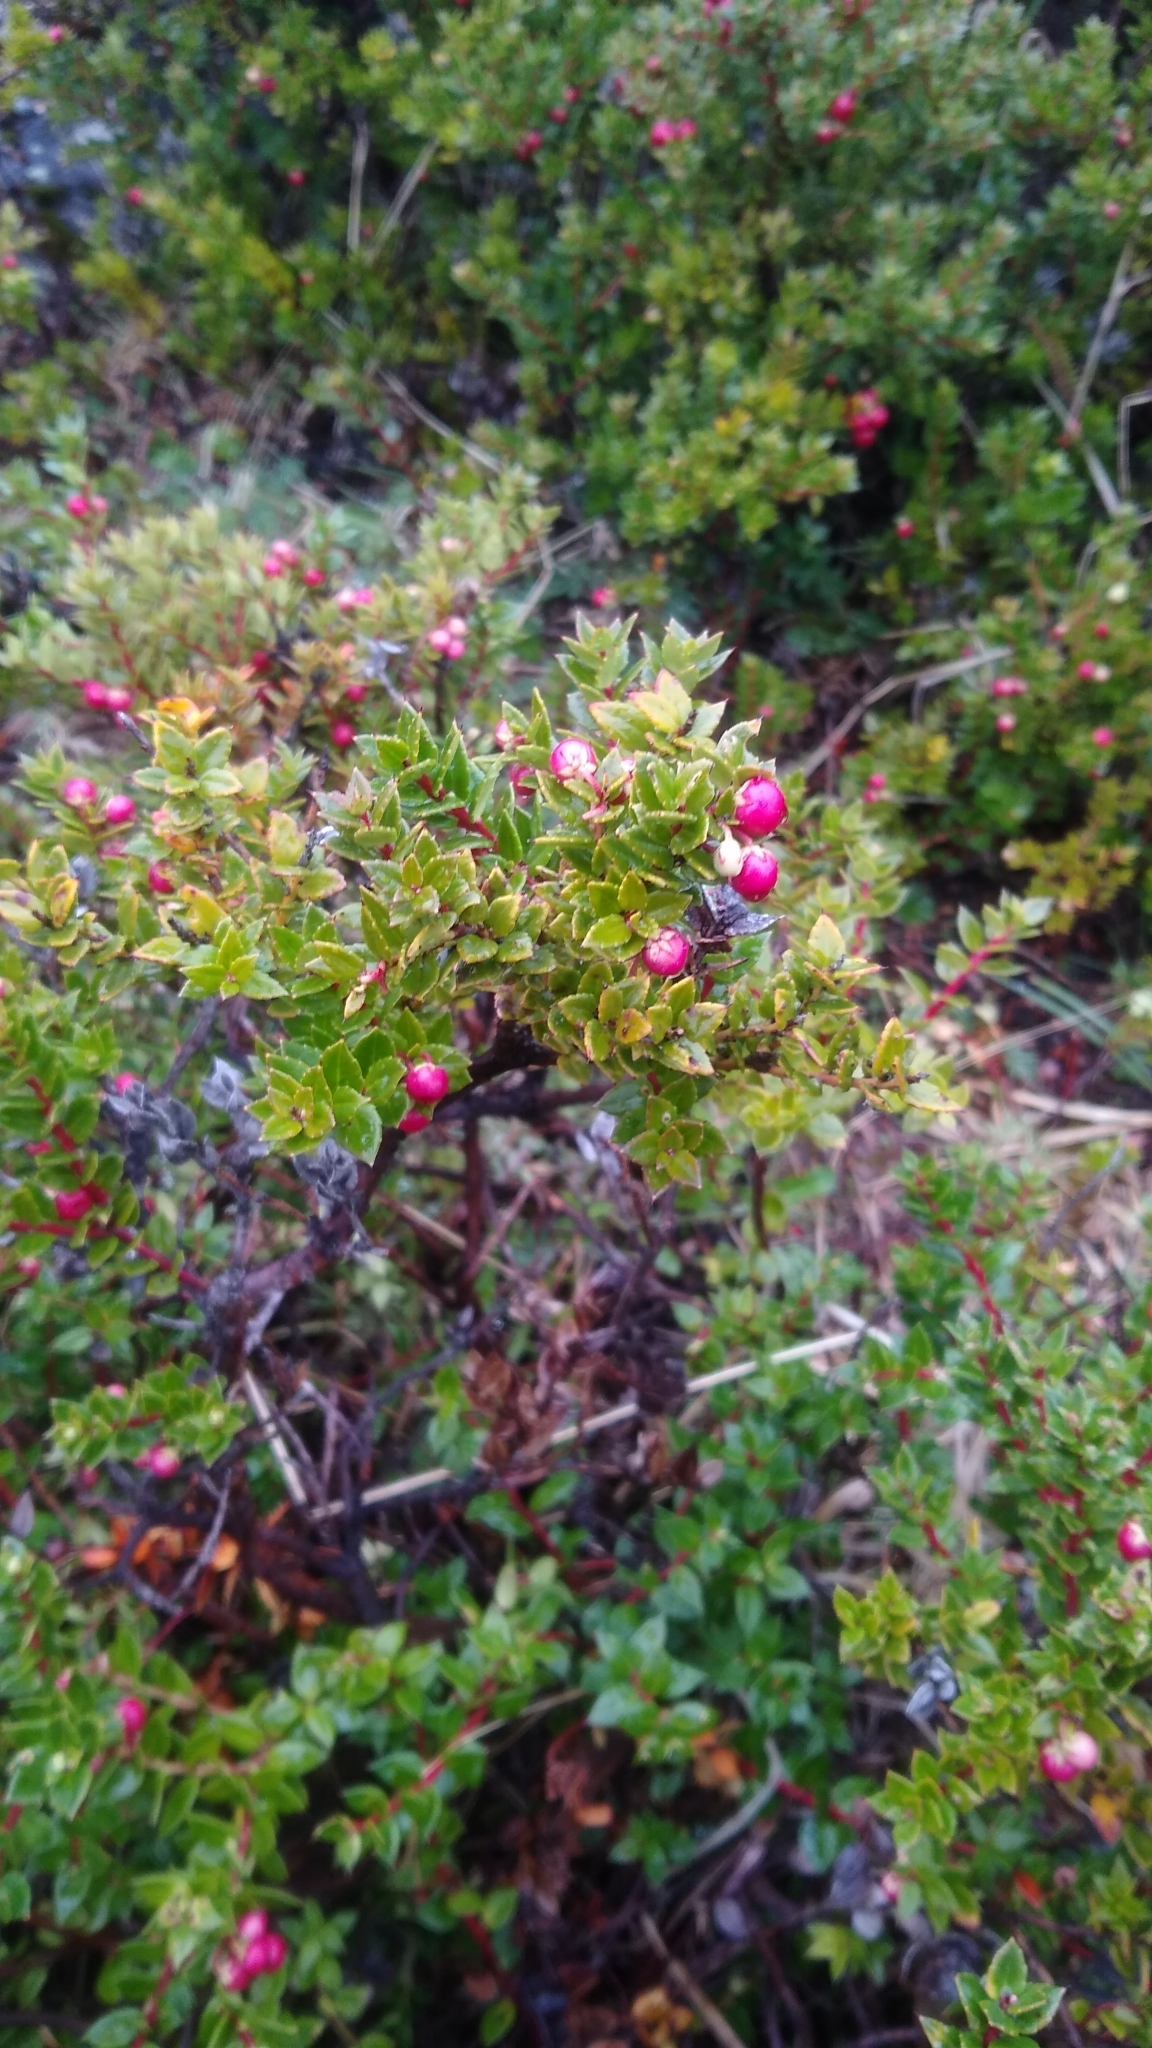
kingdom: Plantae
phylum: Tracheophyta
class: Magnoliopsida
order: Ericales
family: Ericaceae
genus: Gaultheria
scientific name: Gaultheria mucronata
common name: Prickly heath
